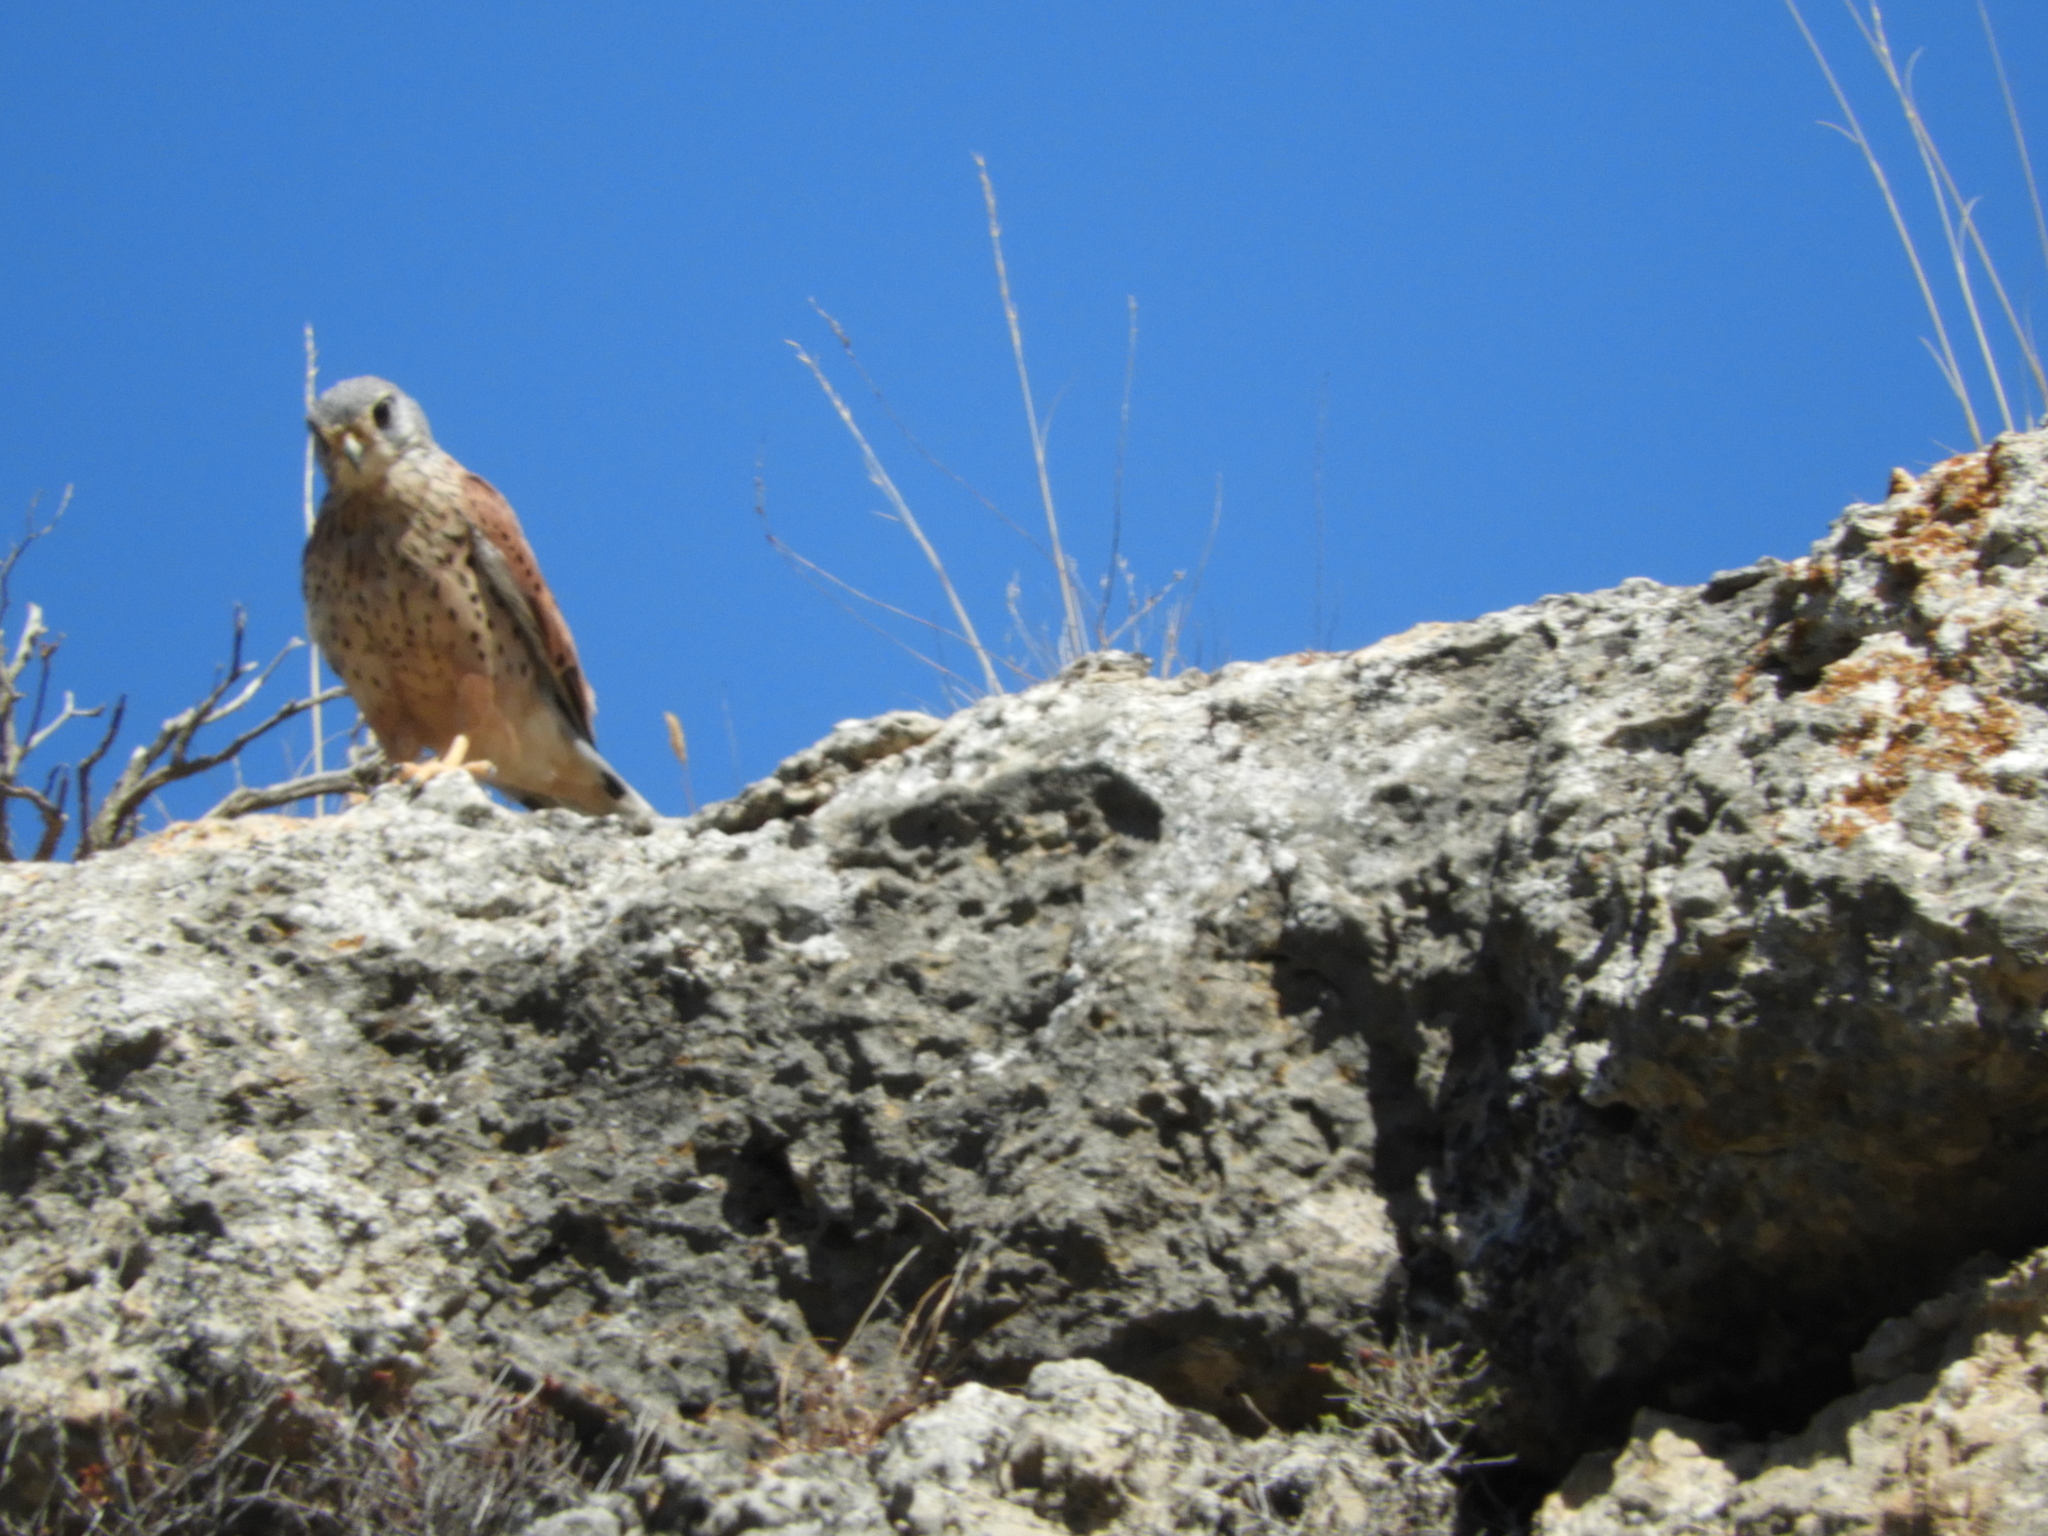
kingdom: Animalia
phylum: Chordata
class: Aves
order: Falconiformes
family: Falconidae
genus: Falco
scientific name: Falco tinnunculus
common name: Common kestrel
